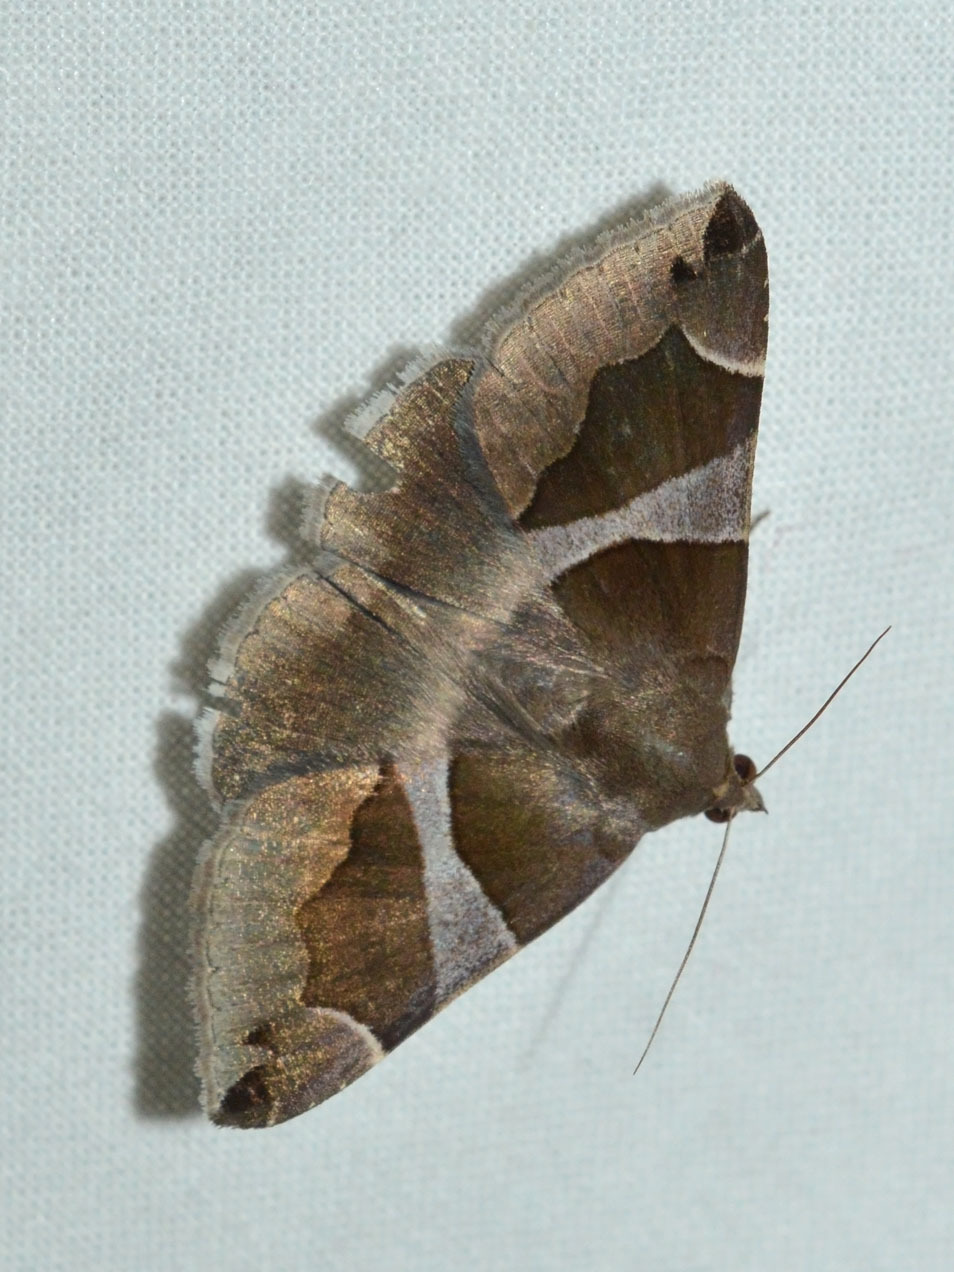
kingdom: Animalia
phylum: Arthropoda
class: Insecta
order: Lepidoptera
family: Erebidae
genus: Dysgonia
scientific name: Dysgonia algira
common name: Passenger
